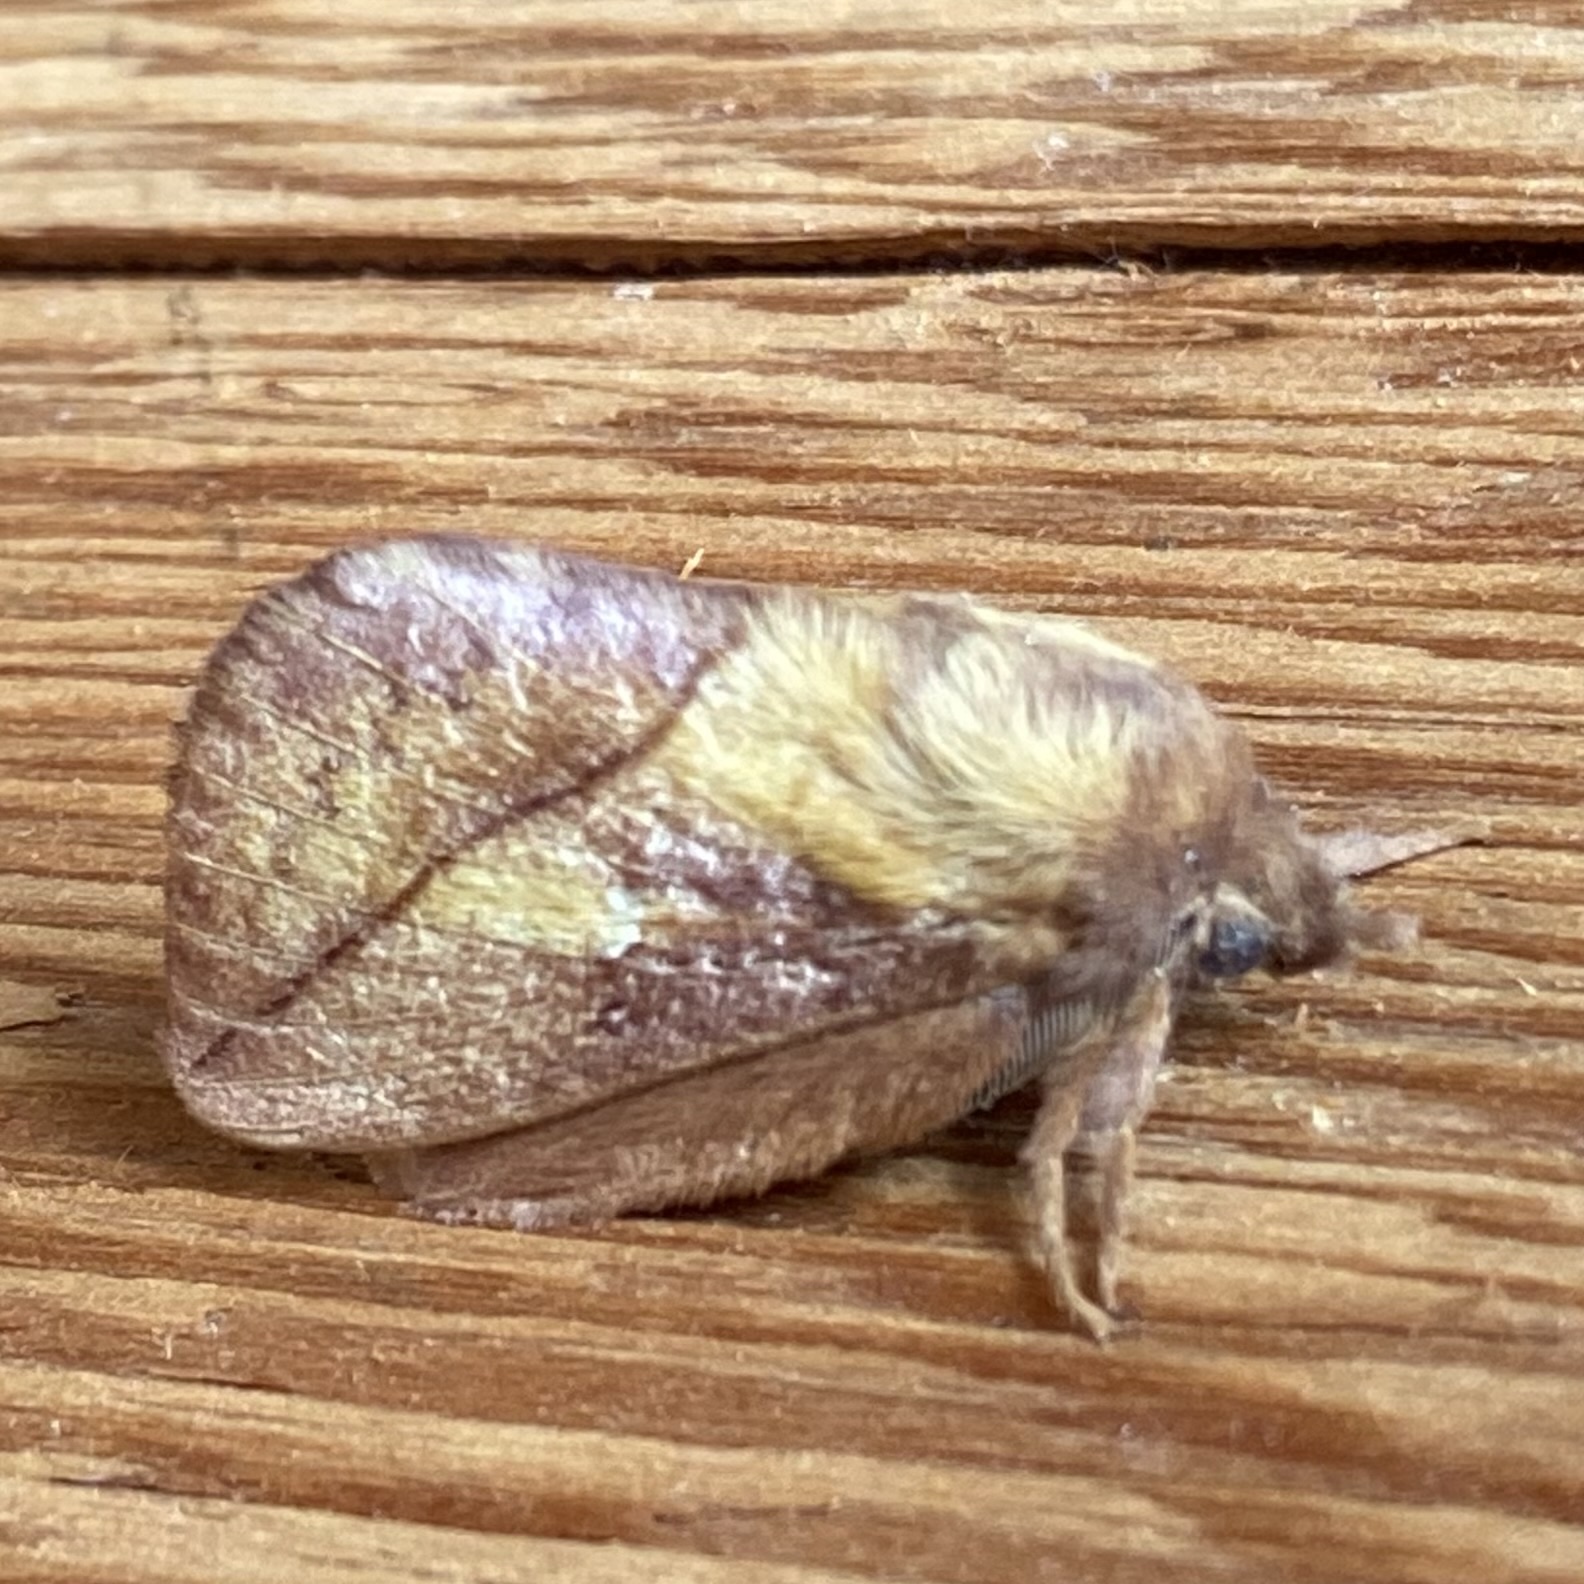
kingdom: Animalia
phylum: Arthropoda
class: Insecta
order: Lepidoptera
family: Lasiocampidae
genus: Euthrix
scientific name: Euthrix potatoria
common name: Drinker
